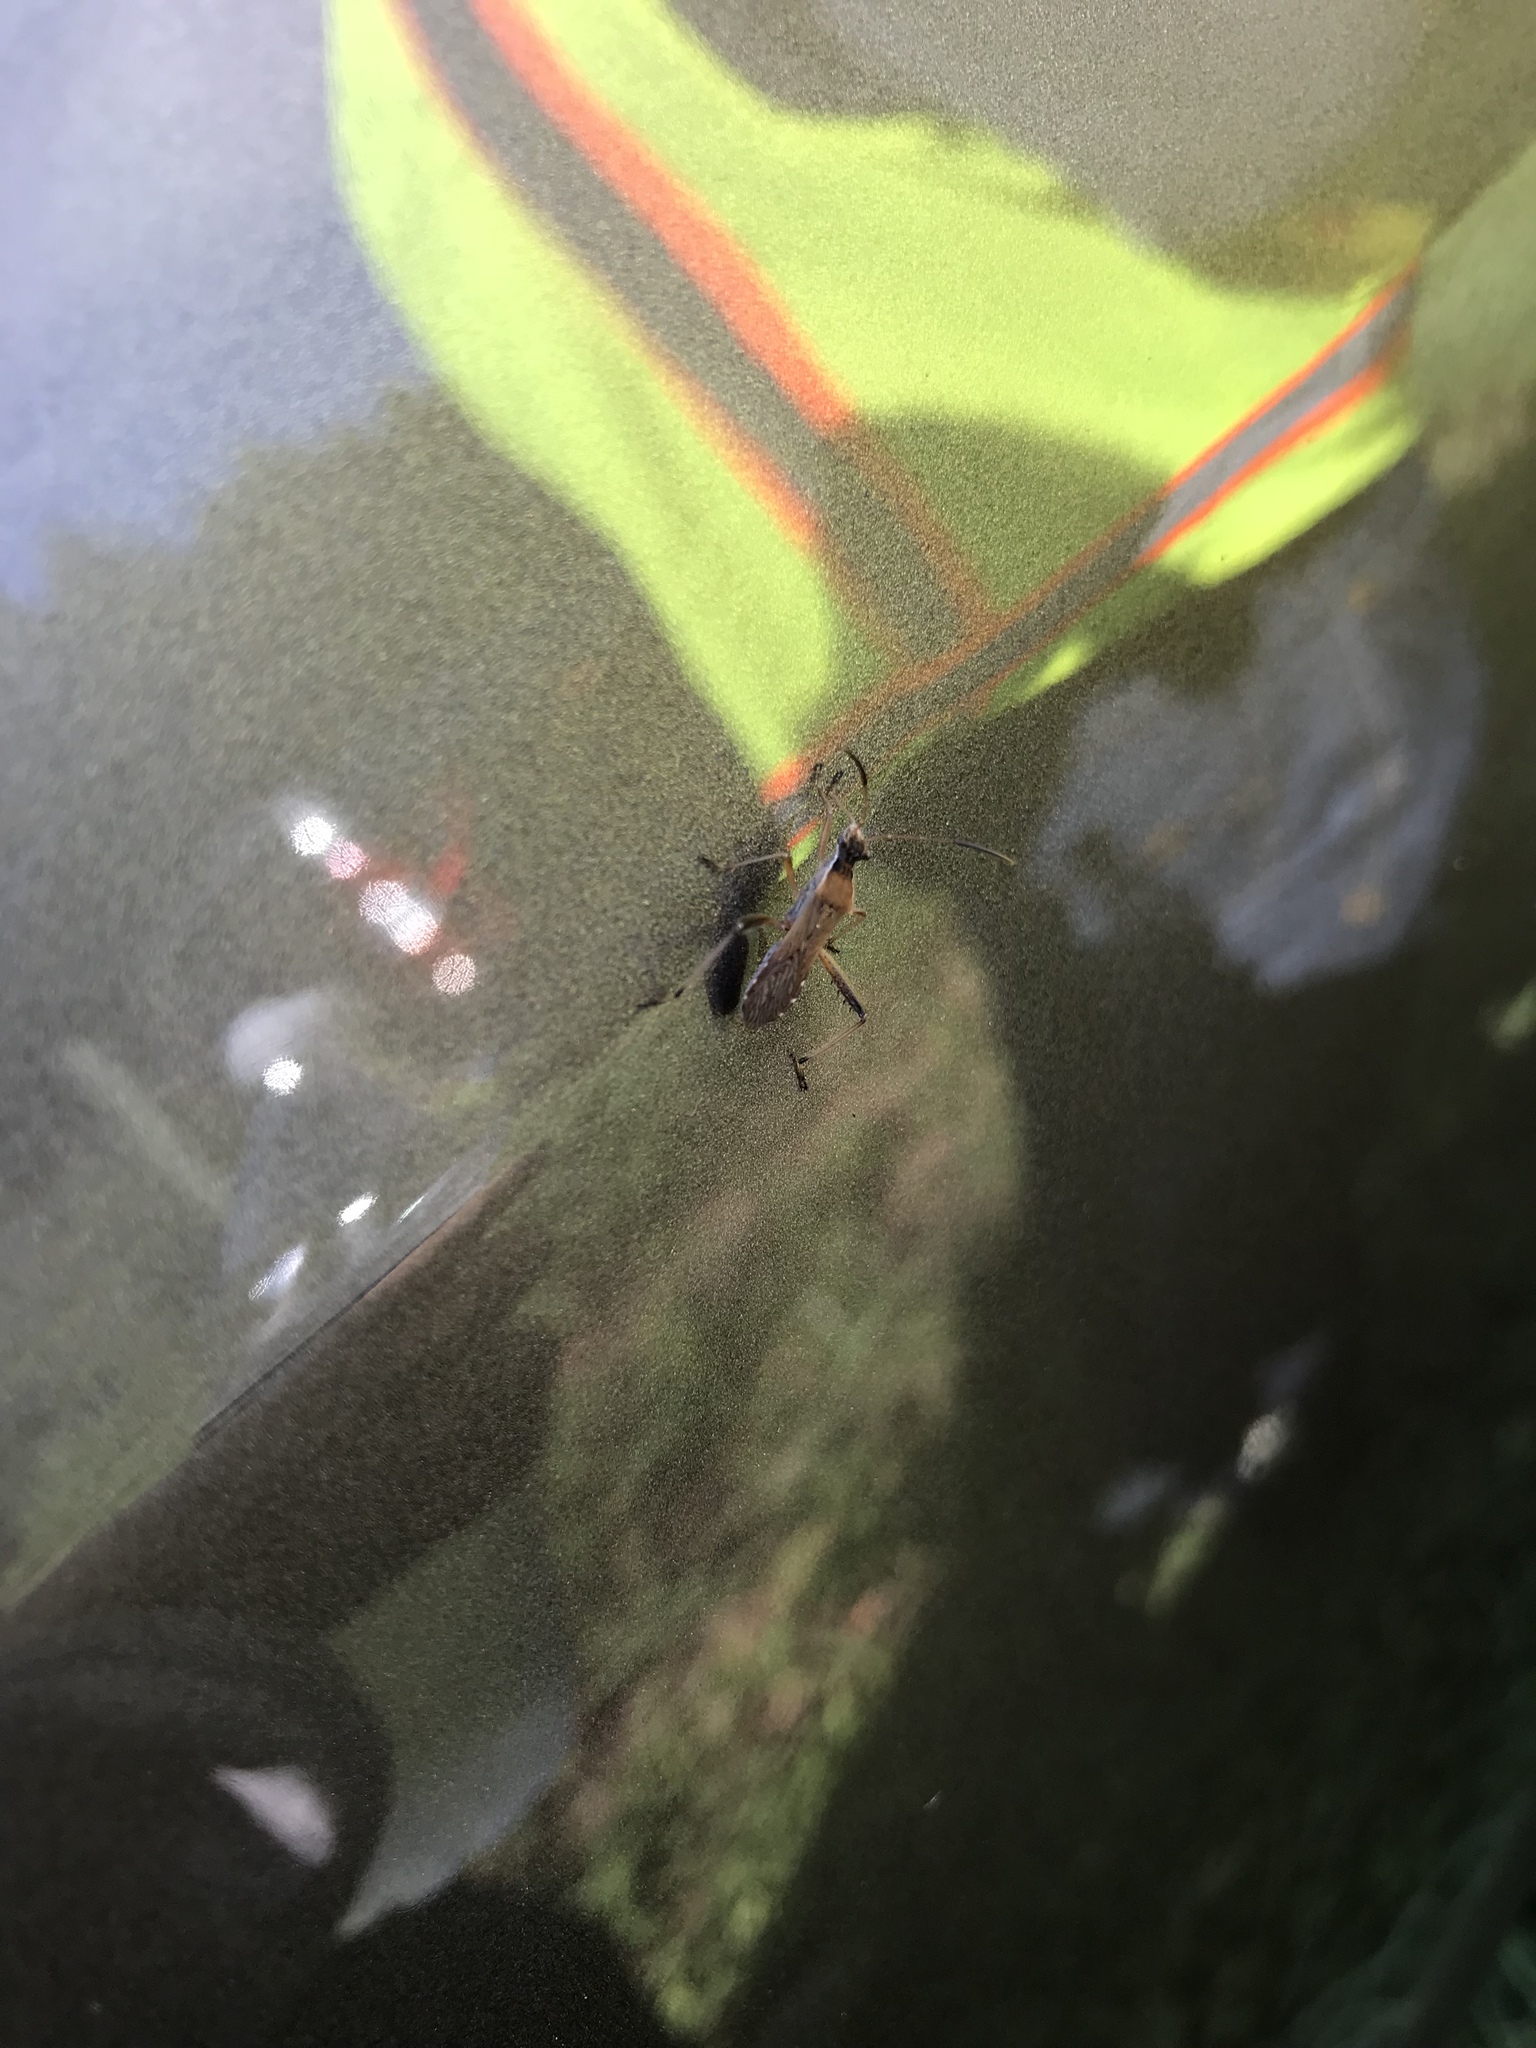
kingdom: Animalia
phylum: Arthropoda
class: Insecta
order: Hemiptera
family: Alydidae
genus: Alydus
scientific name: Alydus pilosulus
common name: Broad-headed bug
